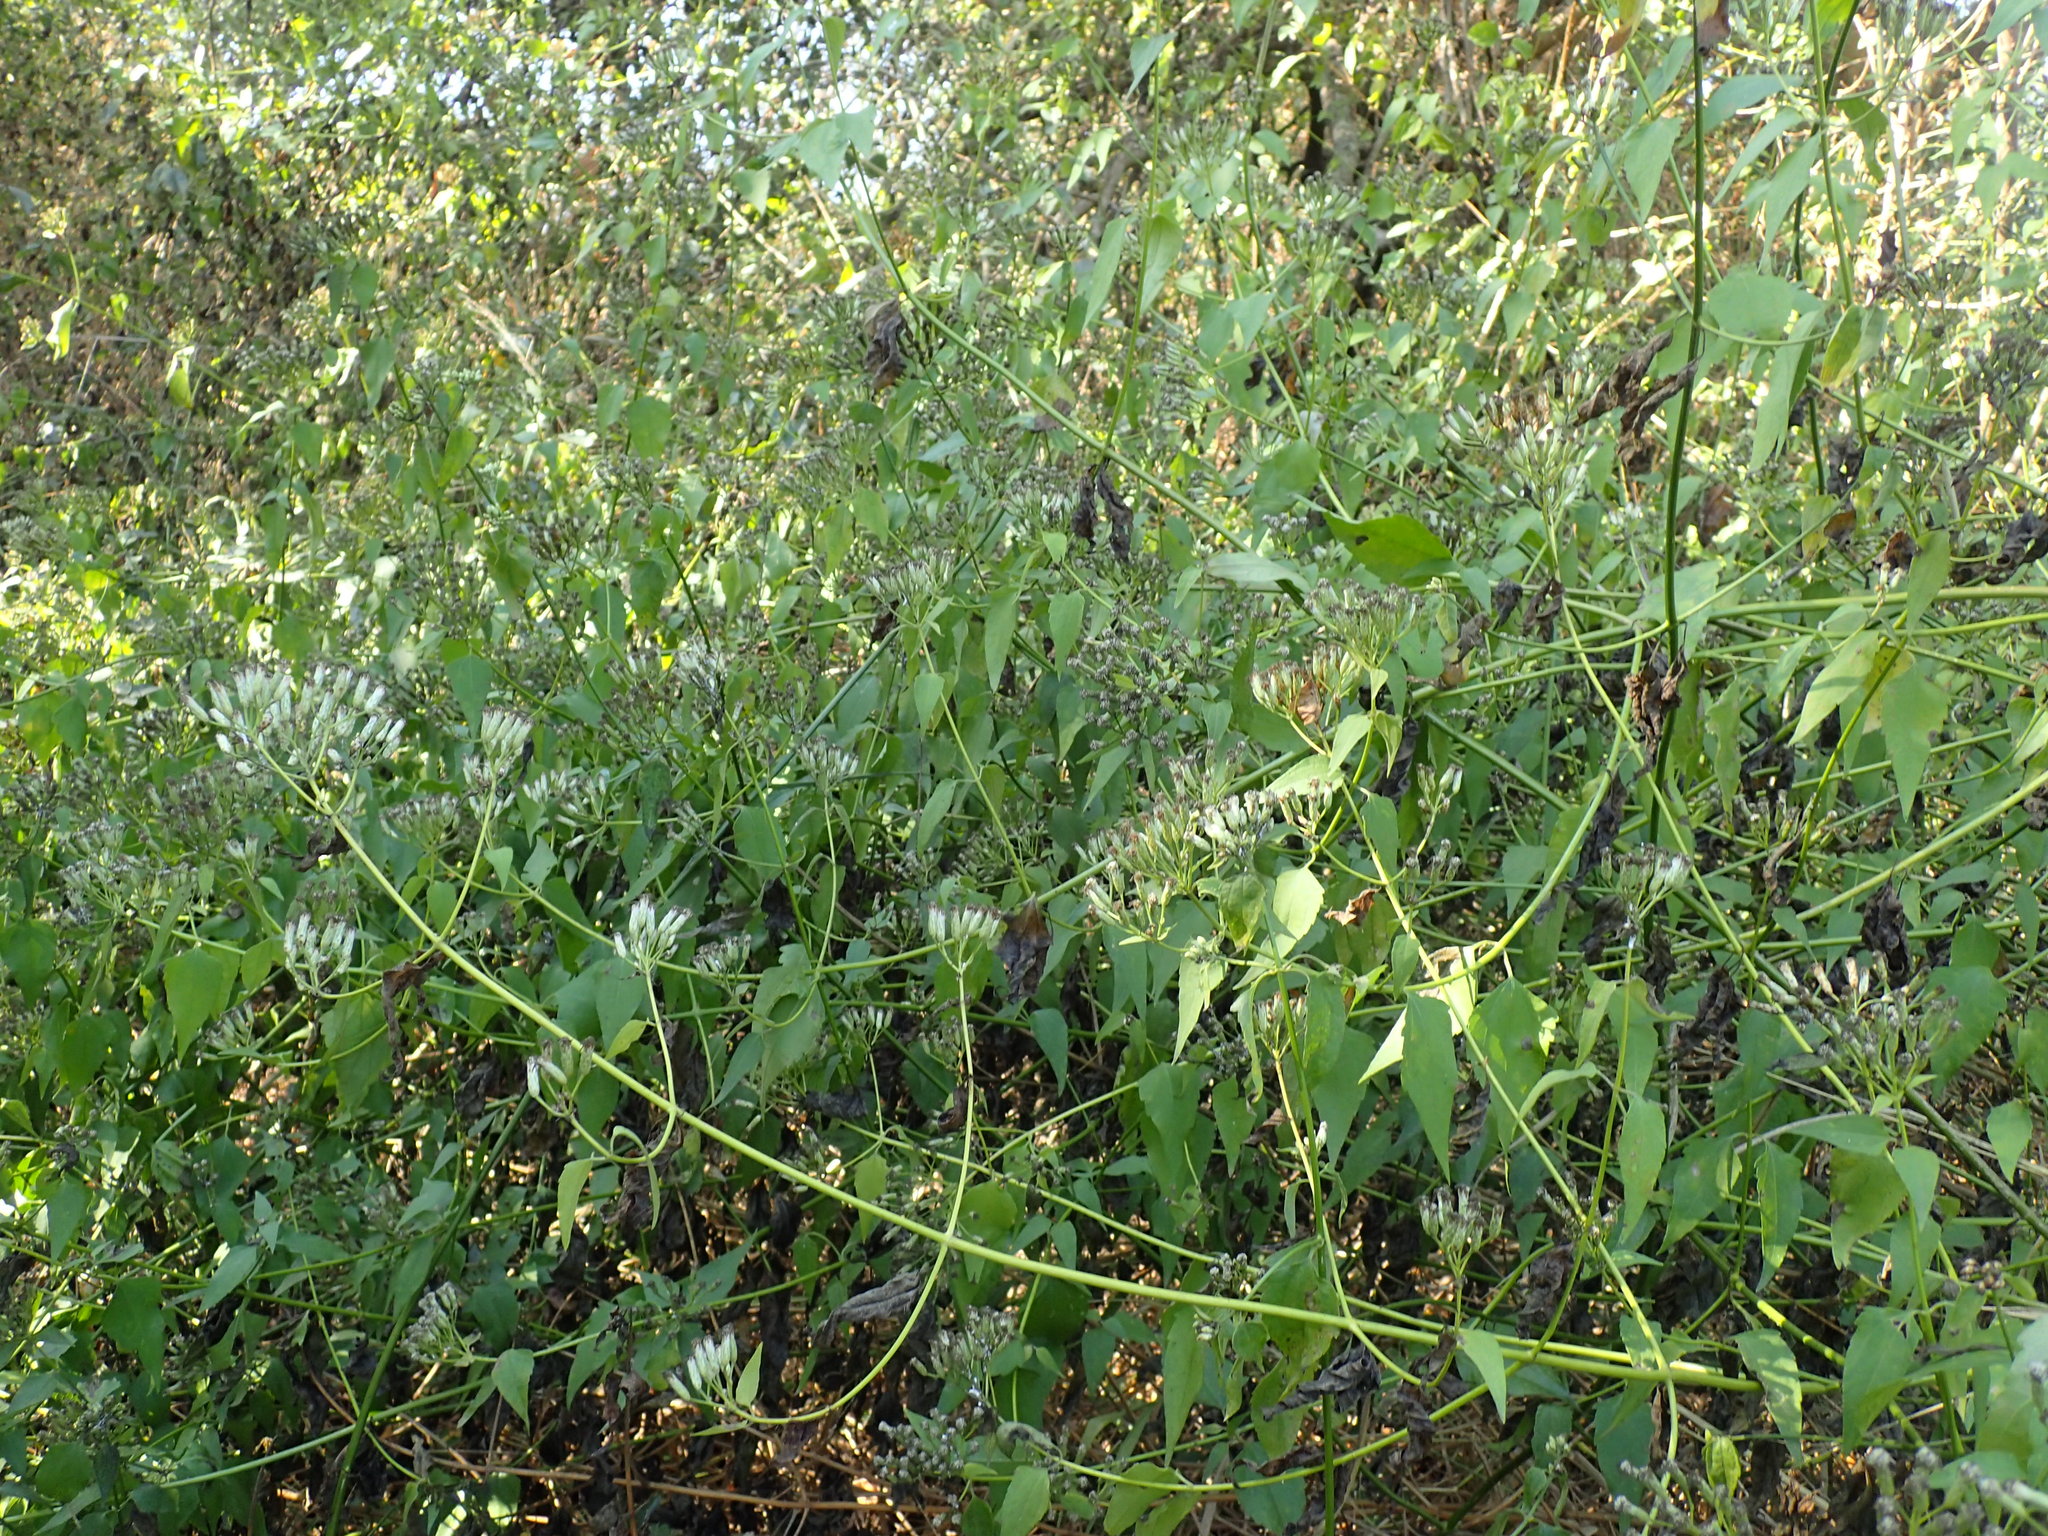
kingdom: Plantae
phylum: Tracheophyta
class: Magnoliopsida
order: Asterales
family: Asteraceae
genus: Chromolaena
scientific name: Chromolaena odorata
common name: Siamweed
